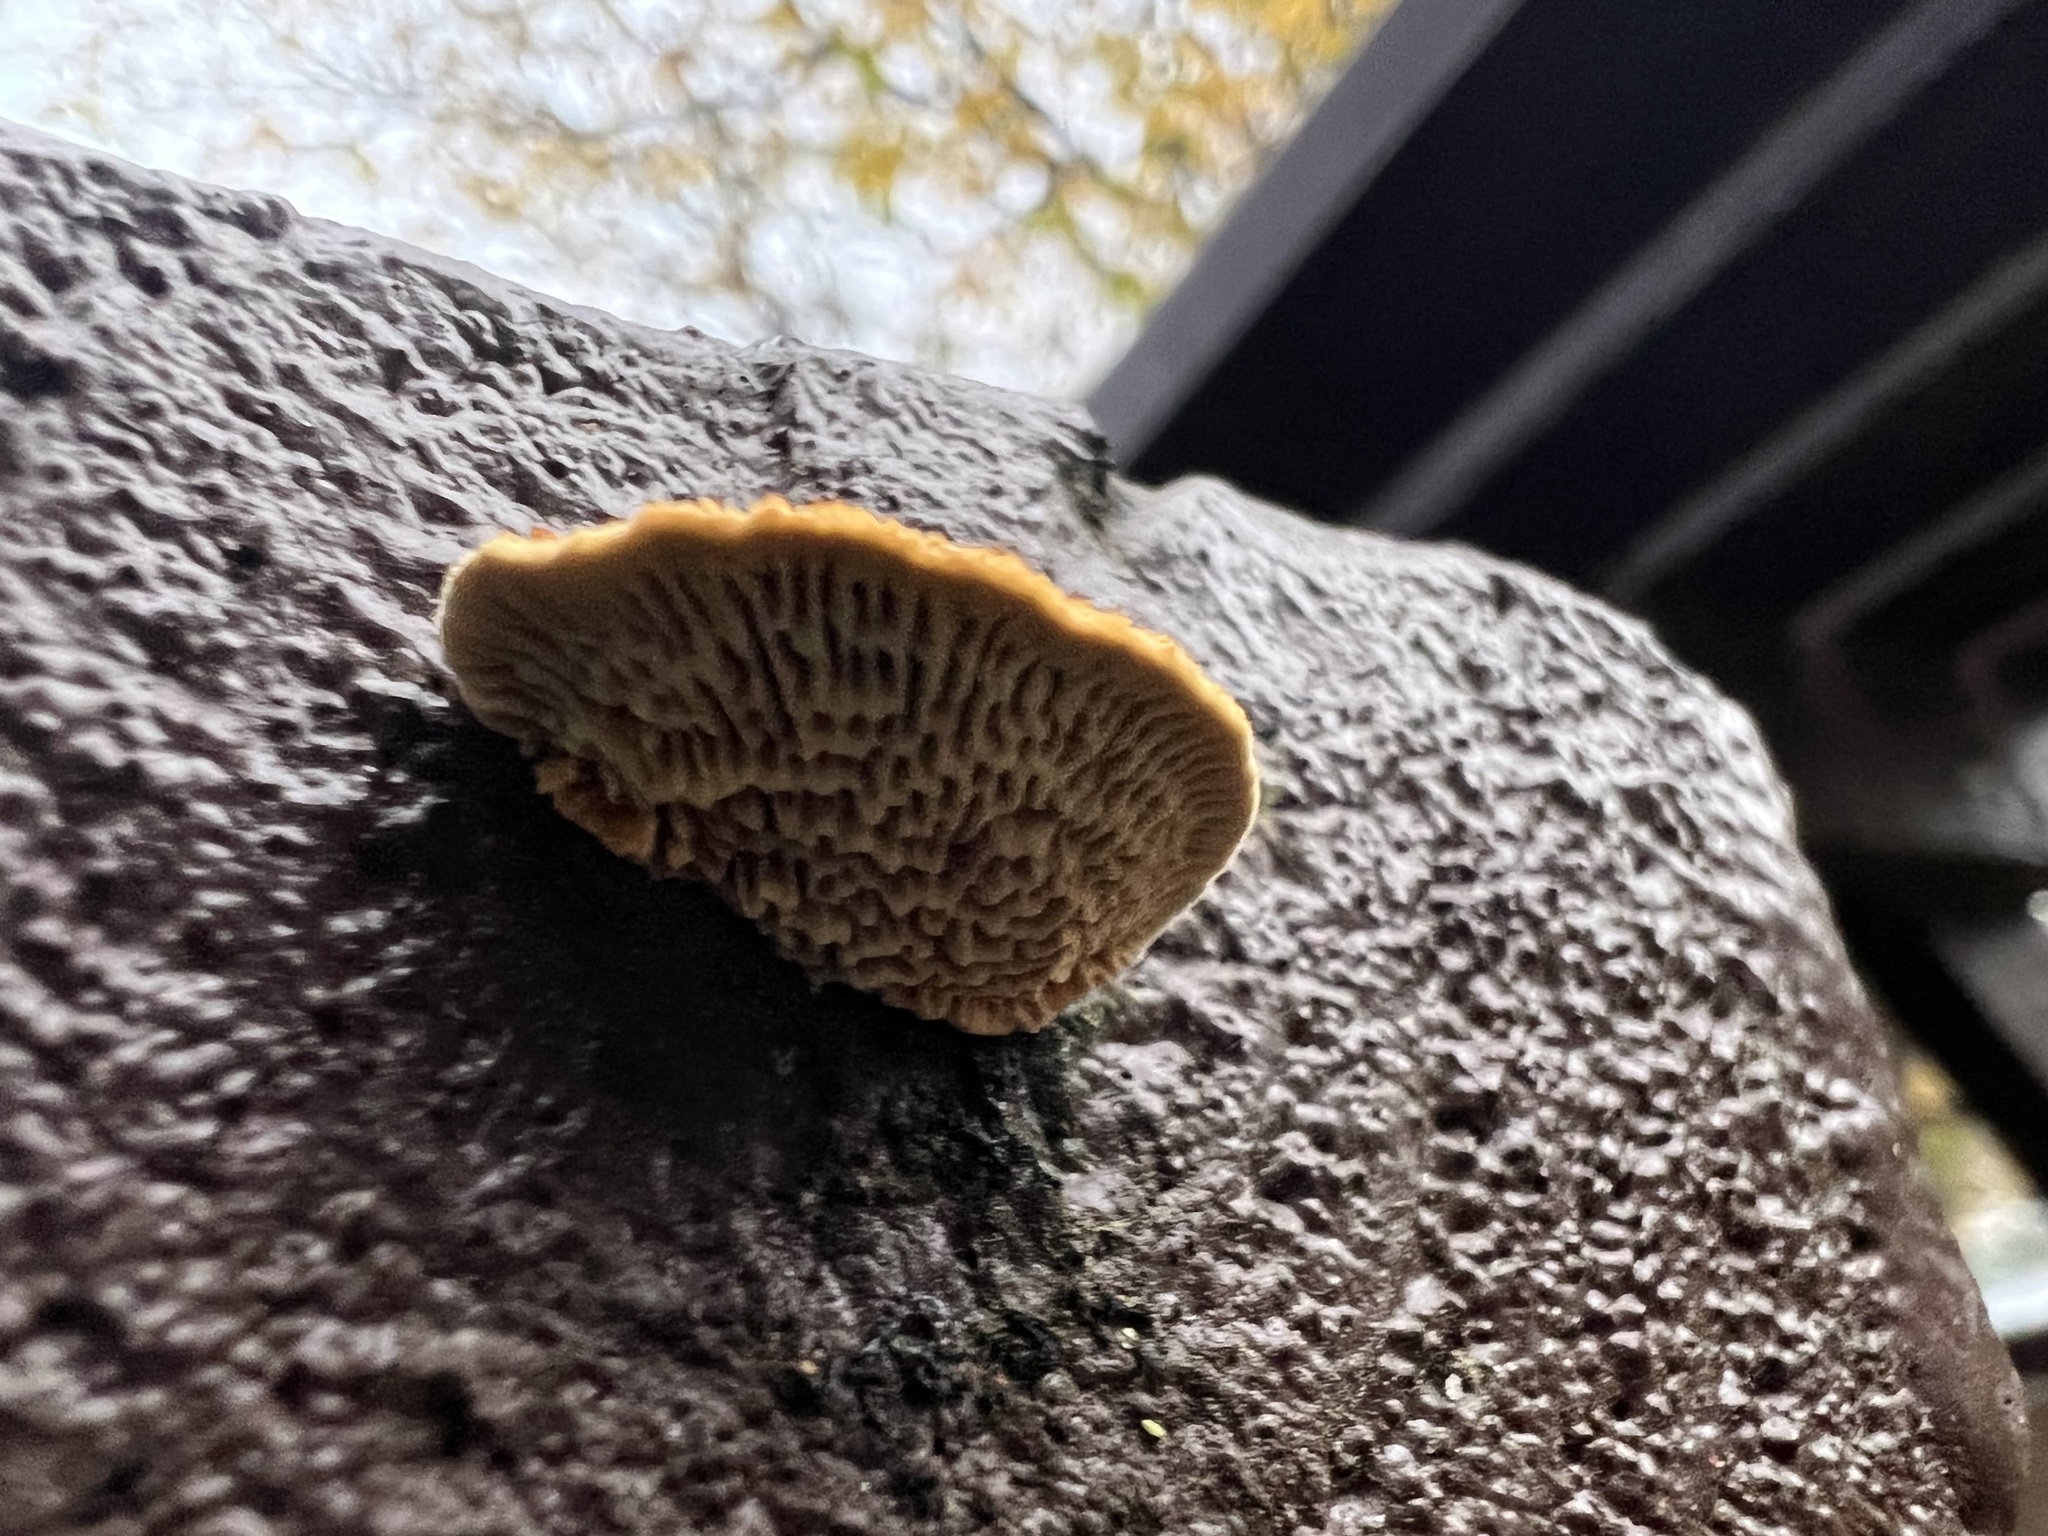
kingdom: Fungi
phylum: Basidiomycota
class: Agaricomycetes
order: Gloeophyllales
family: Gloeophyllaceae
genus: Gloeophyllum
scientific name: Gloeophyllum sepiarium
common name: Conifer mazegill
